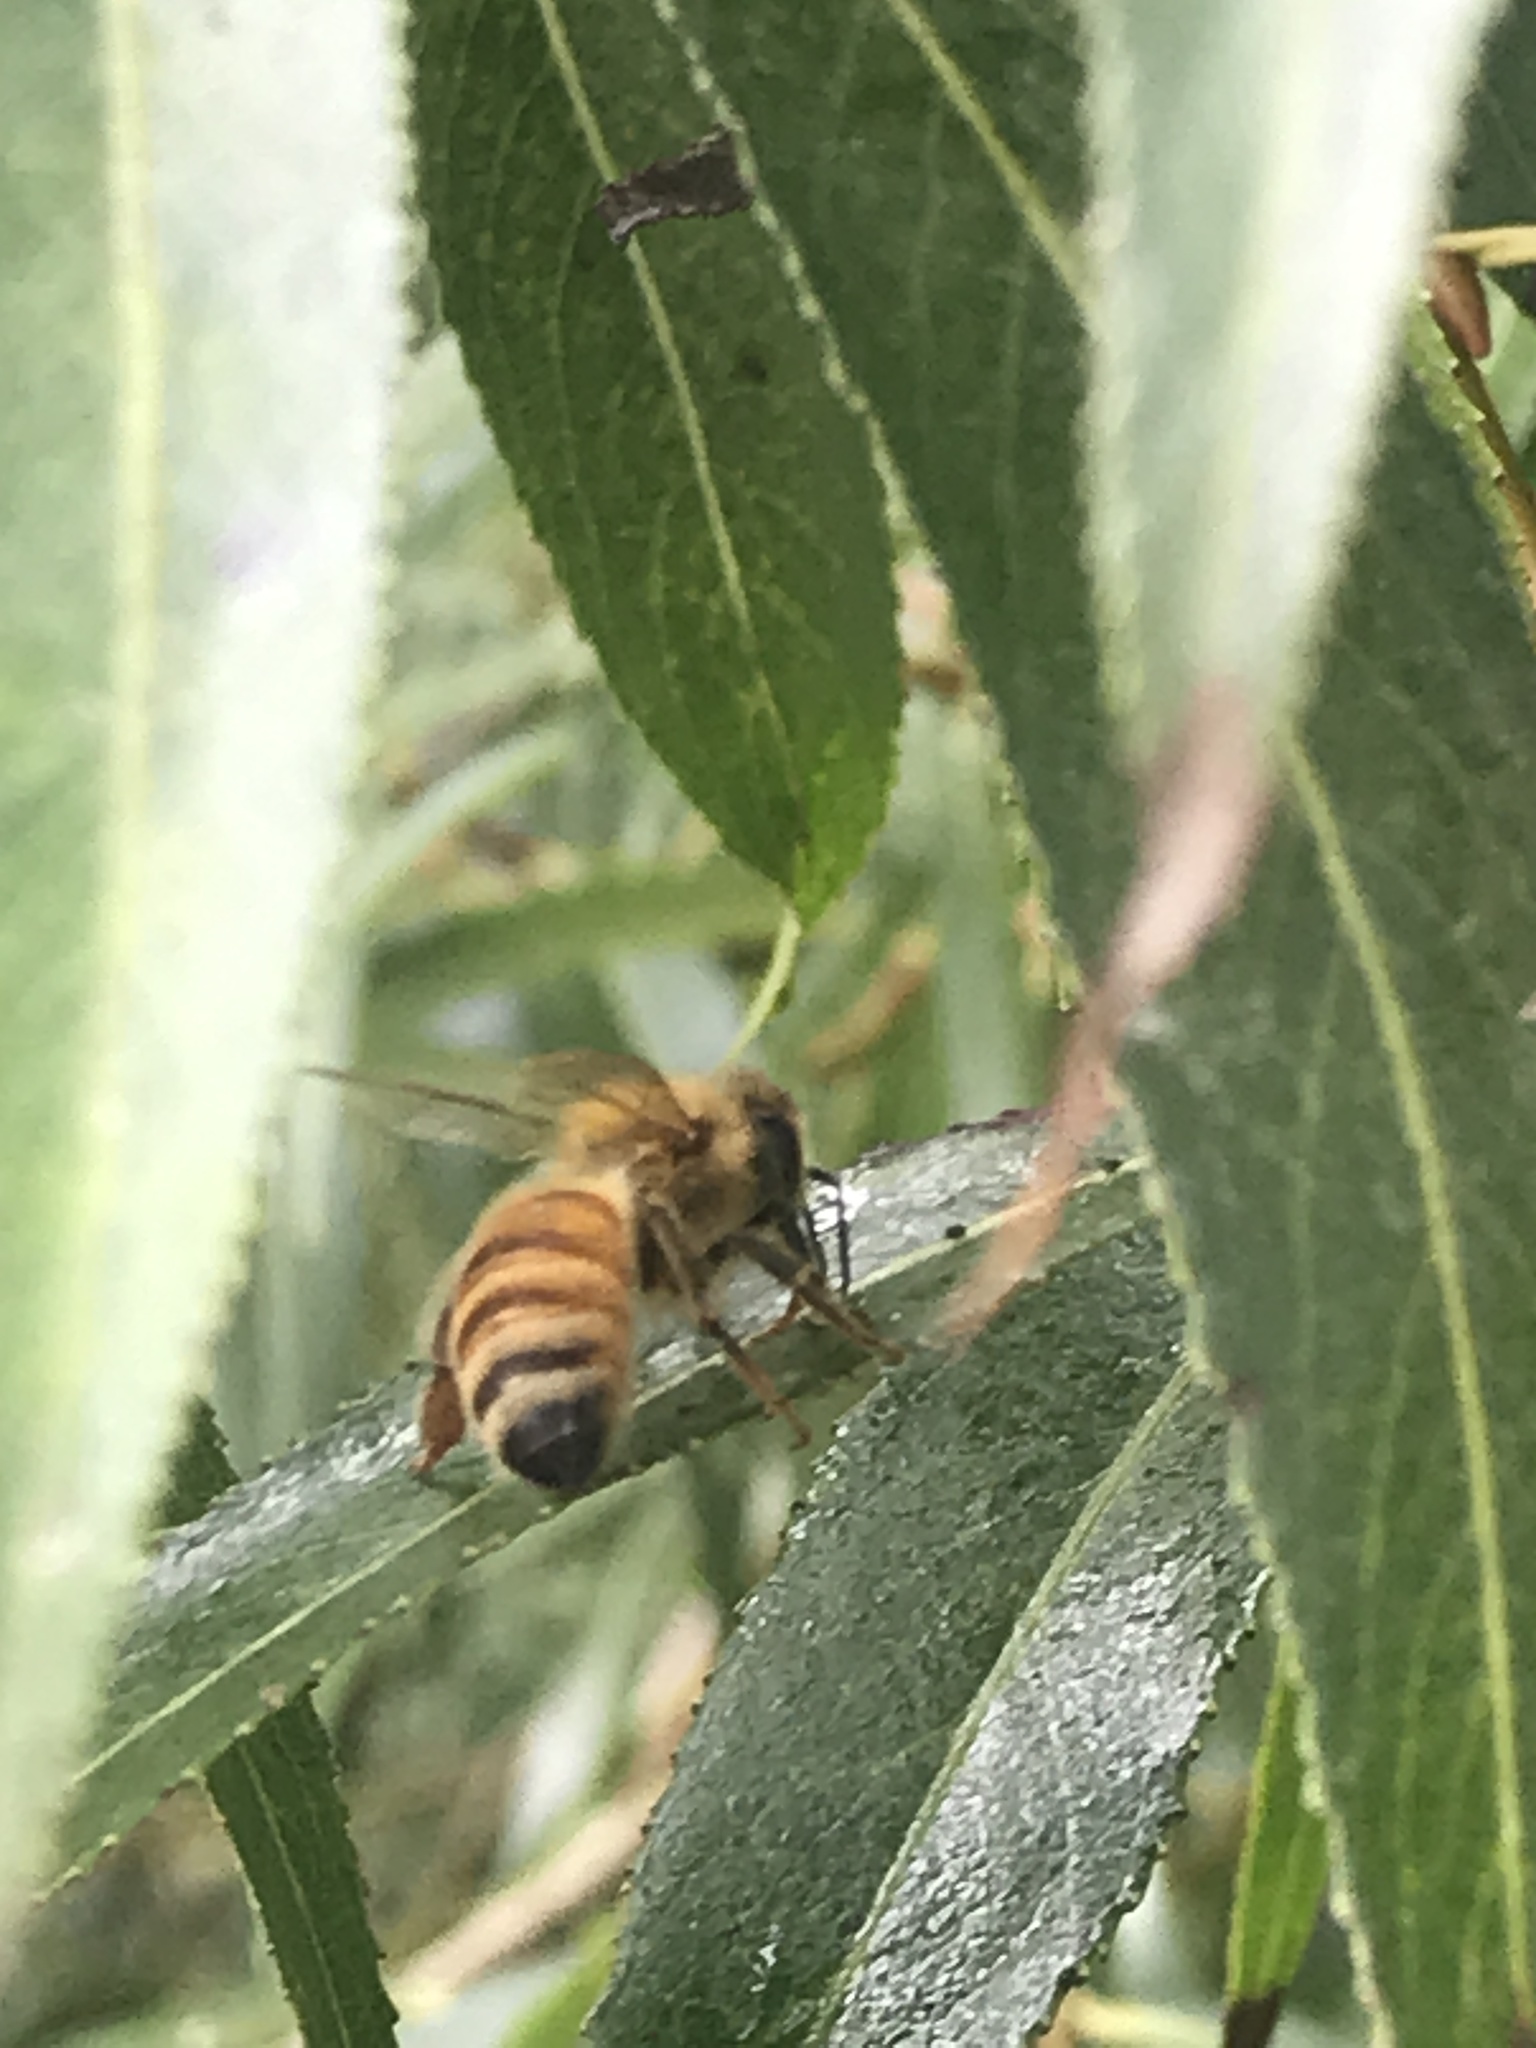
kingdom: Animalia
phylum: Arthropoda
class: Insecta
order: Hymenoptera
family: Apidae
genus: Apis
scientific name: Apis mellifera
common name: Honey bee
